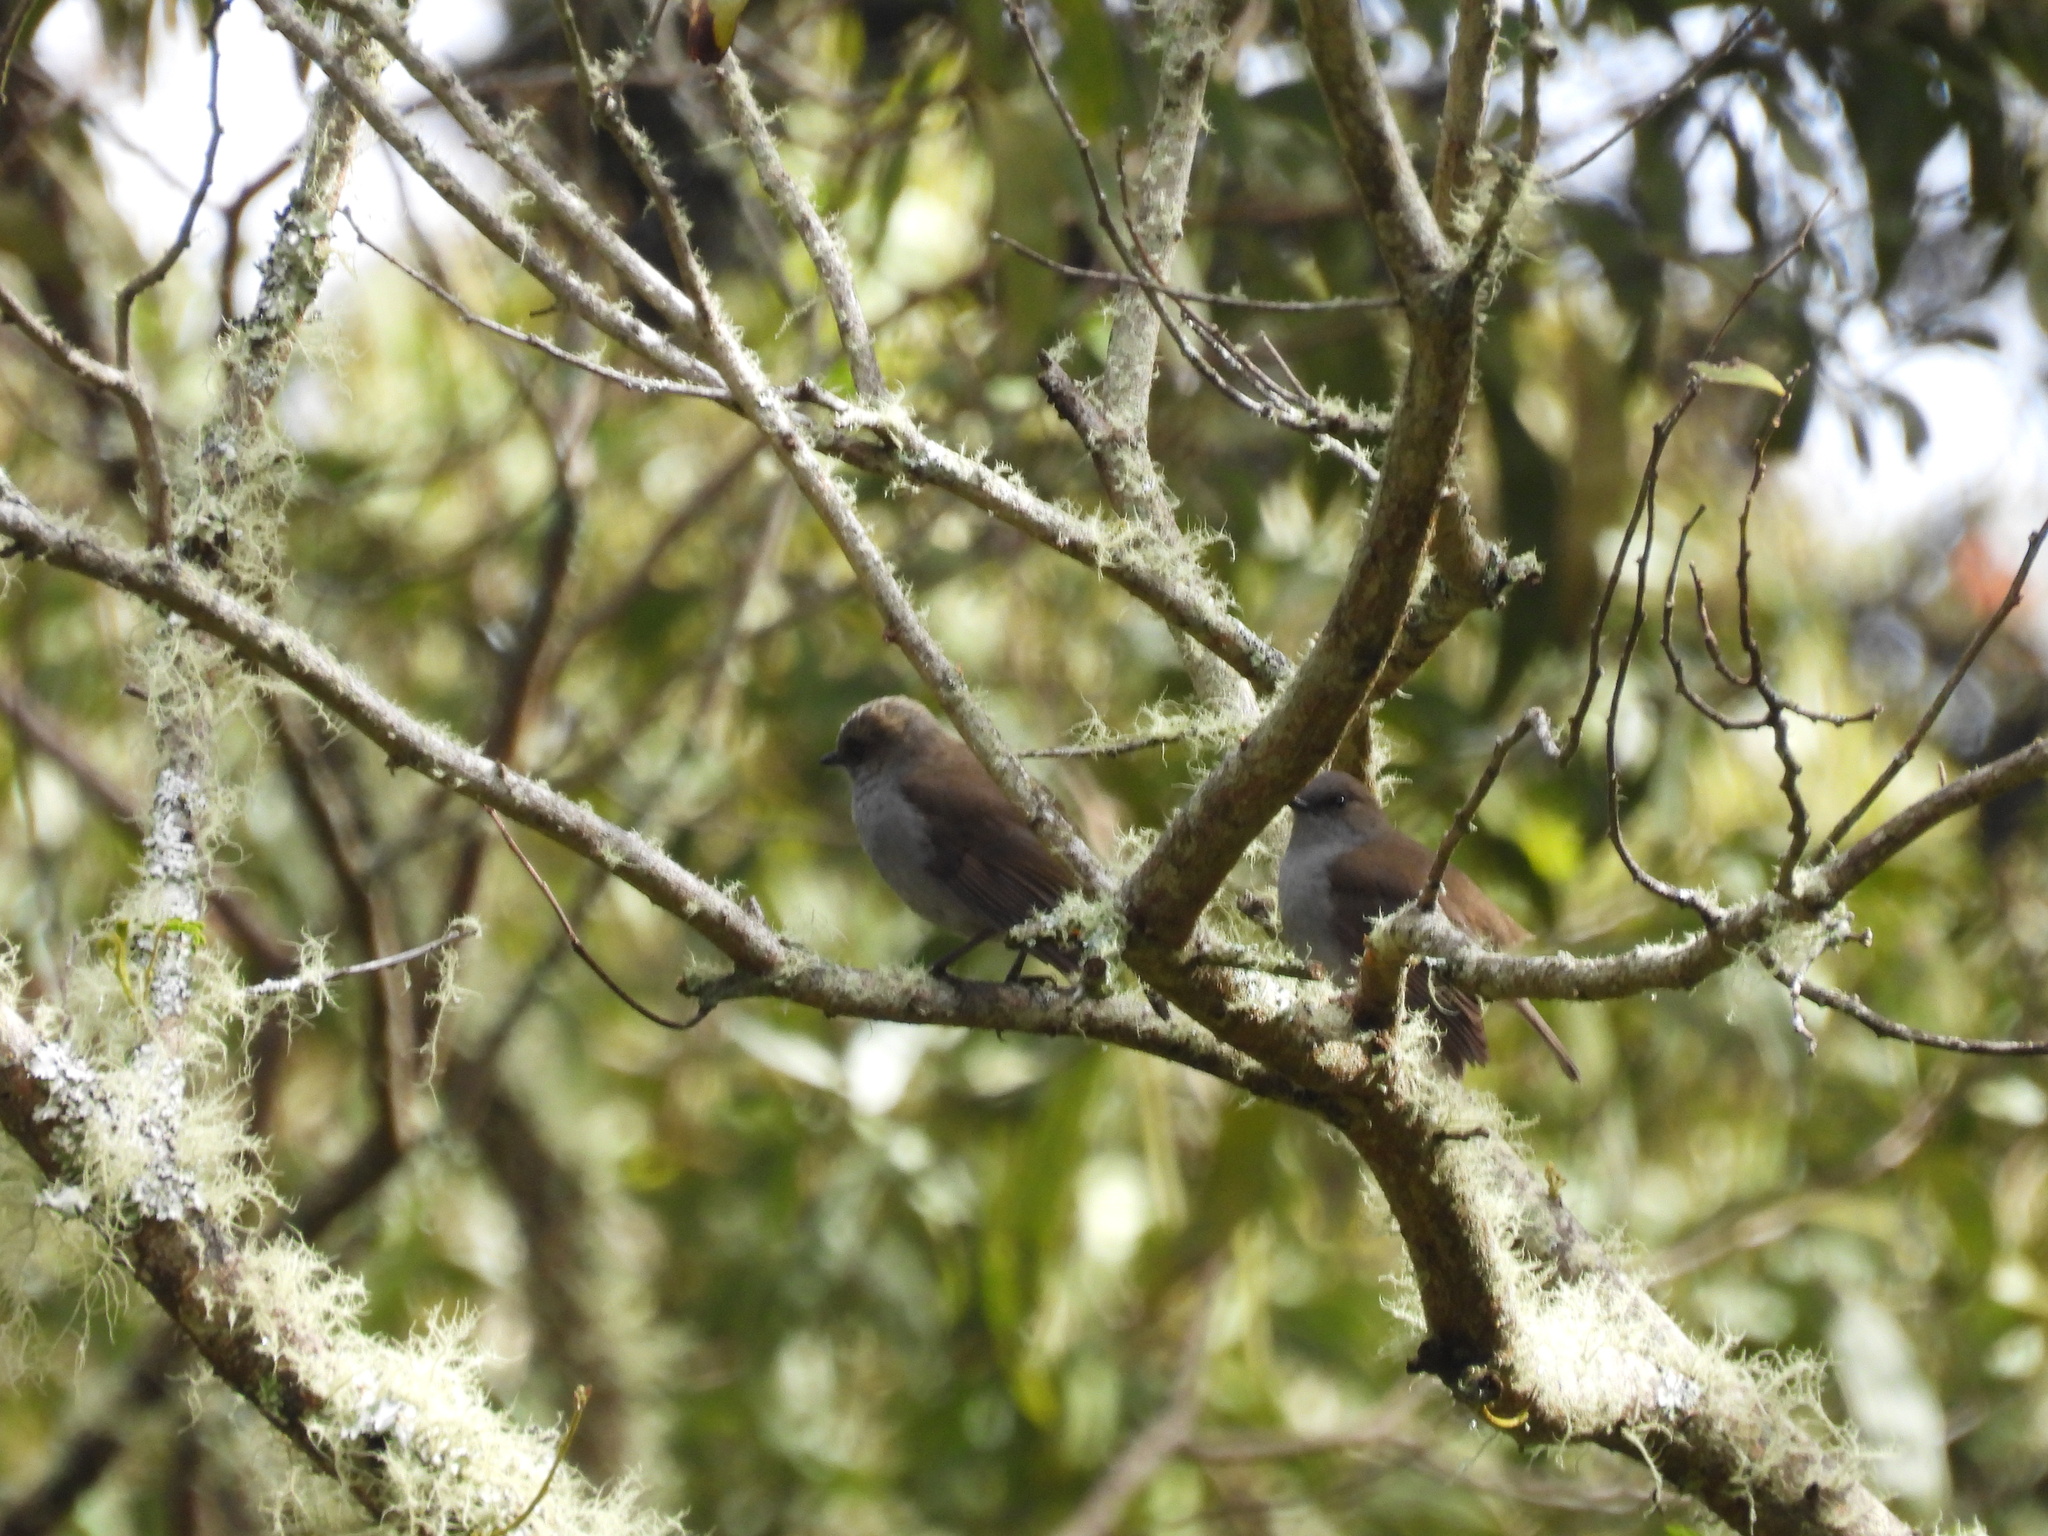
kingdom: Animalia
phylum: Chordata
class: Aves
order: Passeriformes
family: Turdidae
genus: Myadestes
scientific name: Myadestes obscurus
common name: Omao
